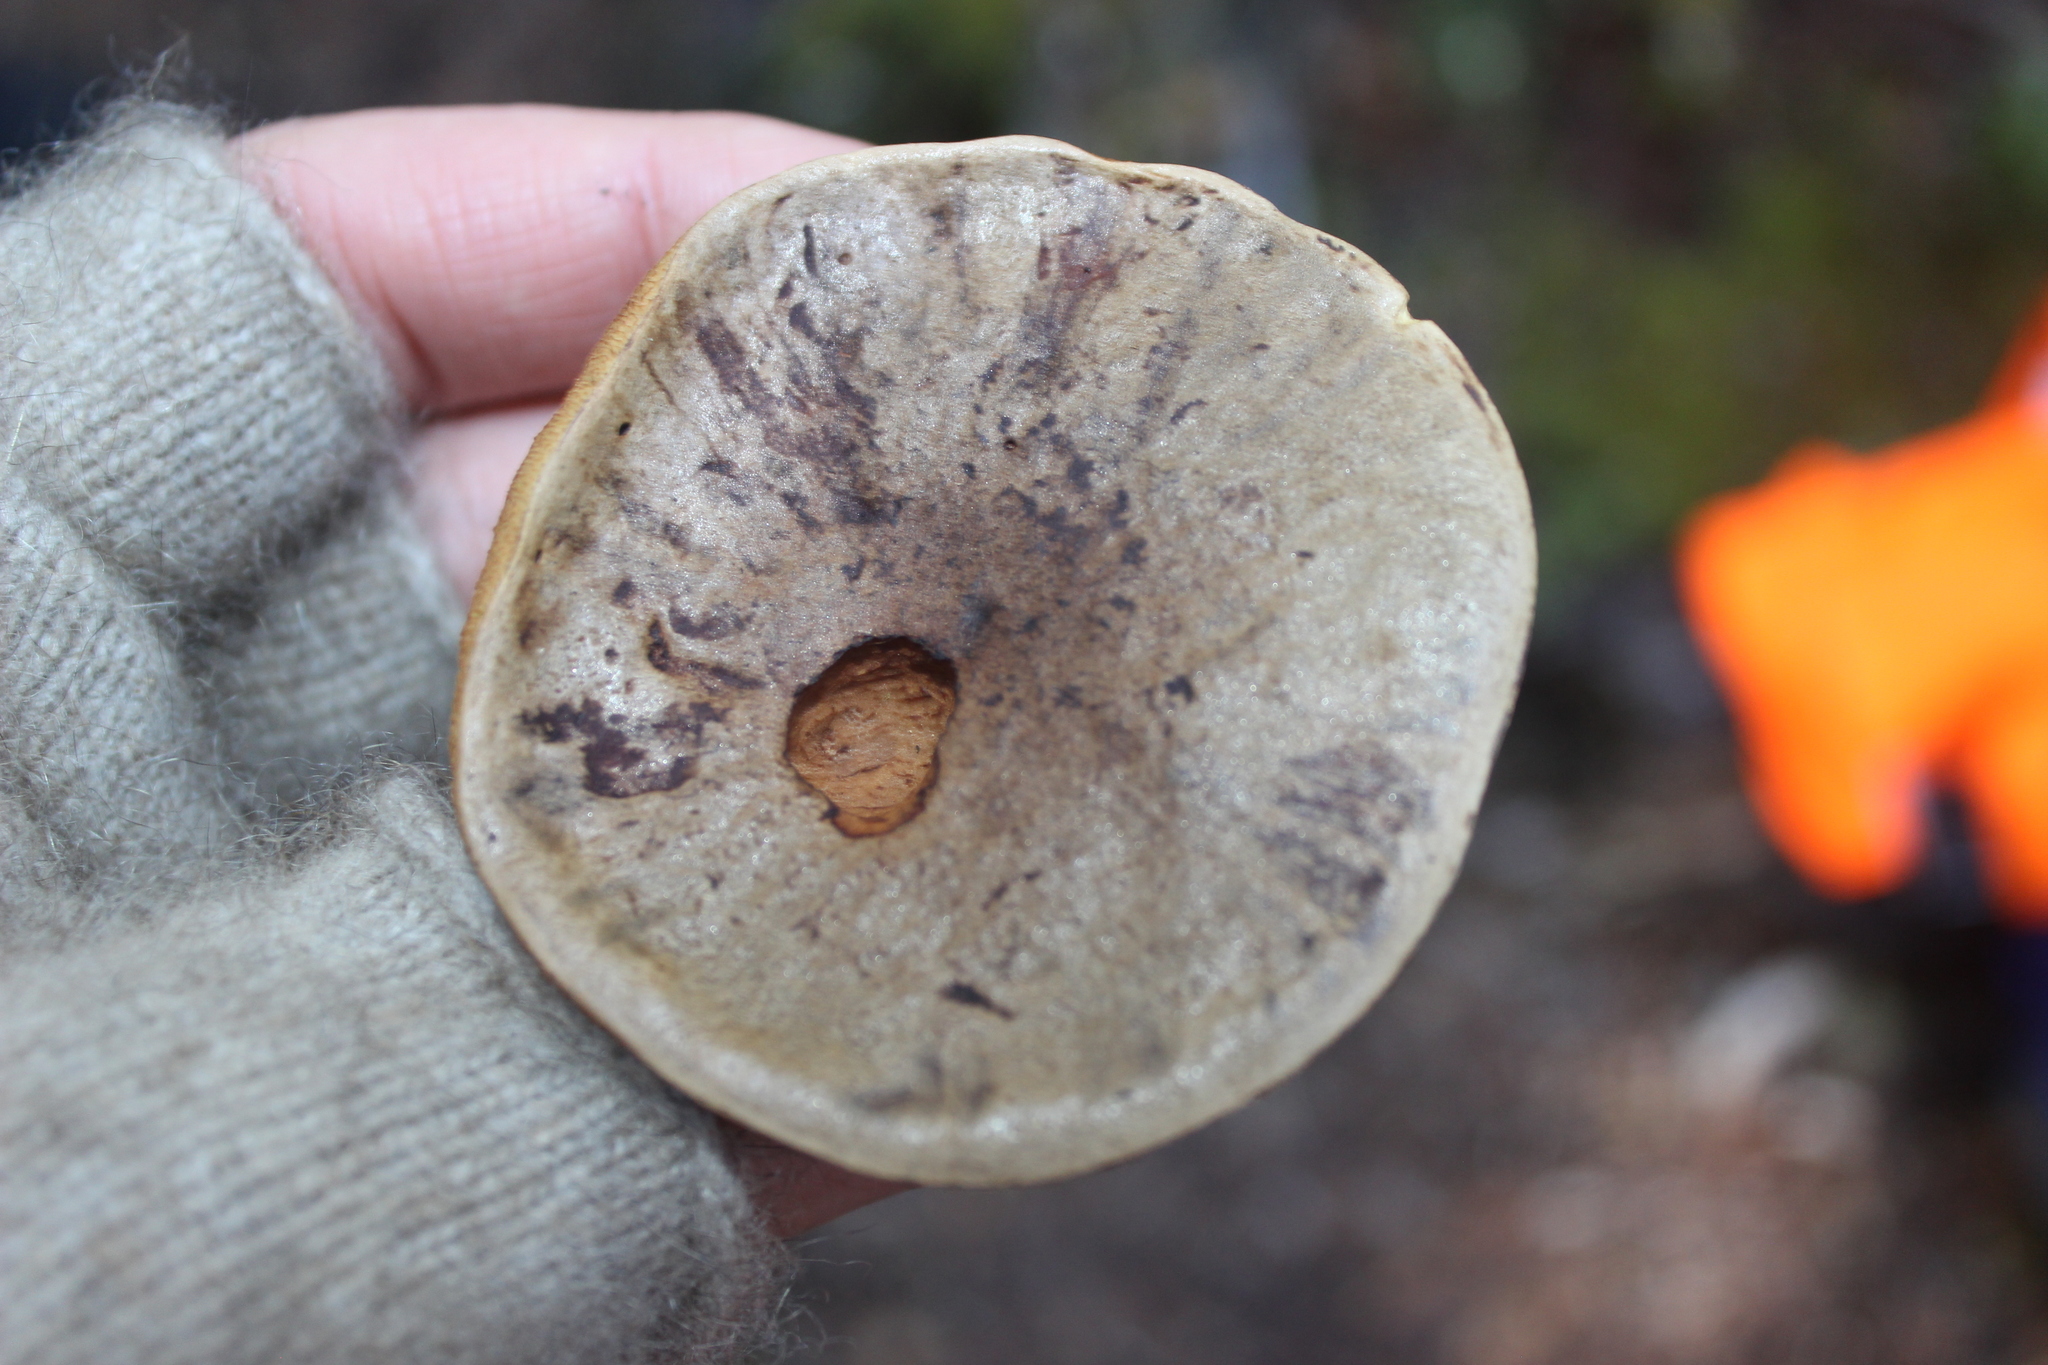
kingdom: Fungi
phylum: Basidiomycota
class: Agaricomycetes
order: Boletales
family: Boletaceae
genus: Xerocomus
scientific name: Xerocomus leptospermi
